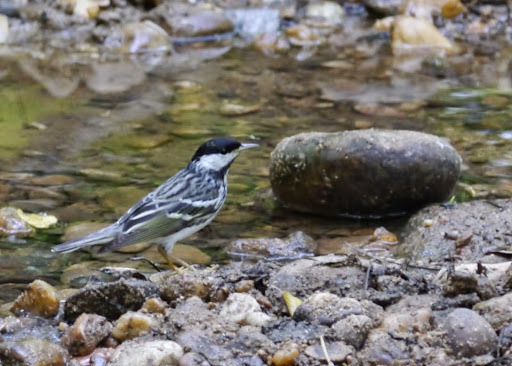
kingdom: Animalia
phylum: Chordata
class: Aves
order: Passeriformes
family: Parulidae
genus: Setophaga
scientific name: Setophaga striata
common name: Blackpoll warbler
